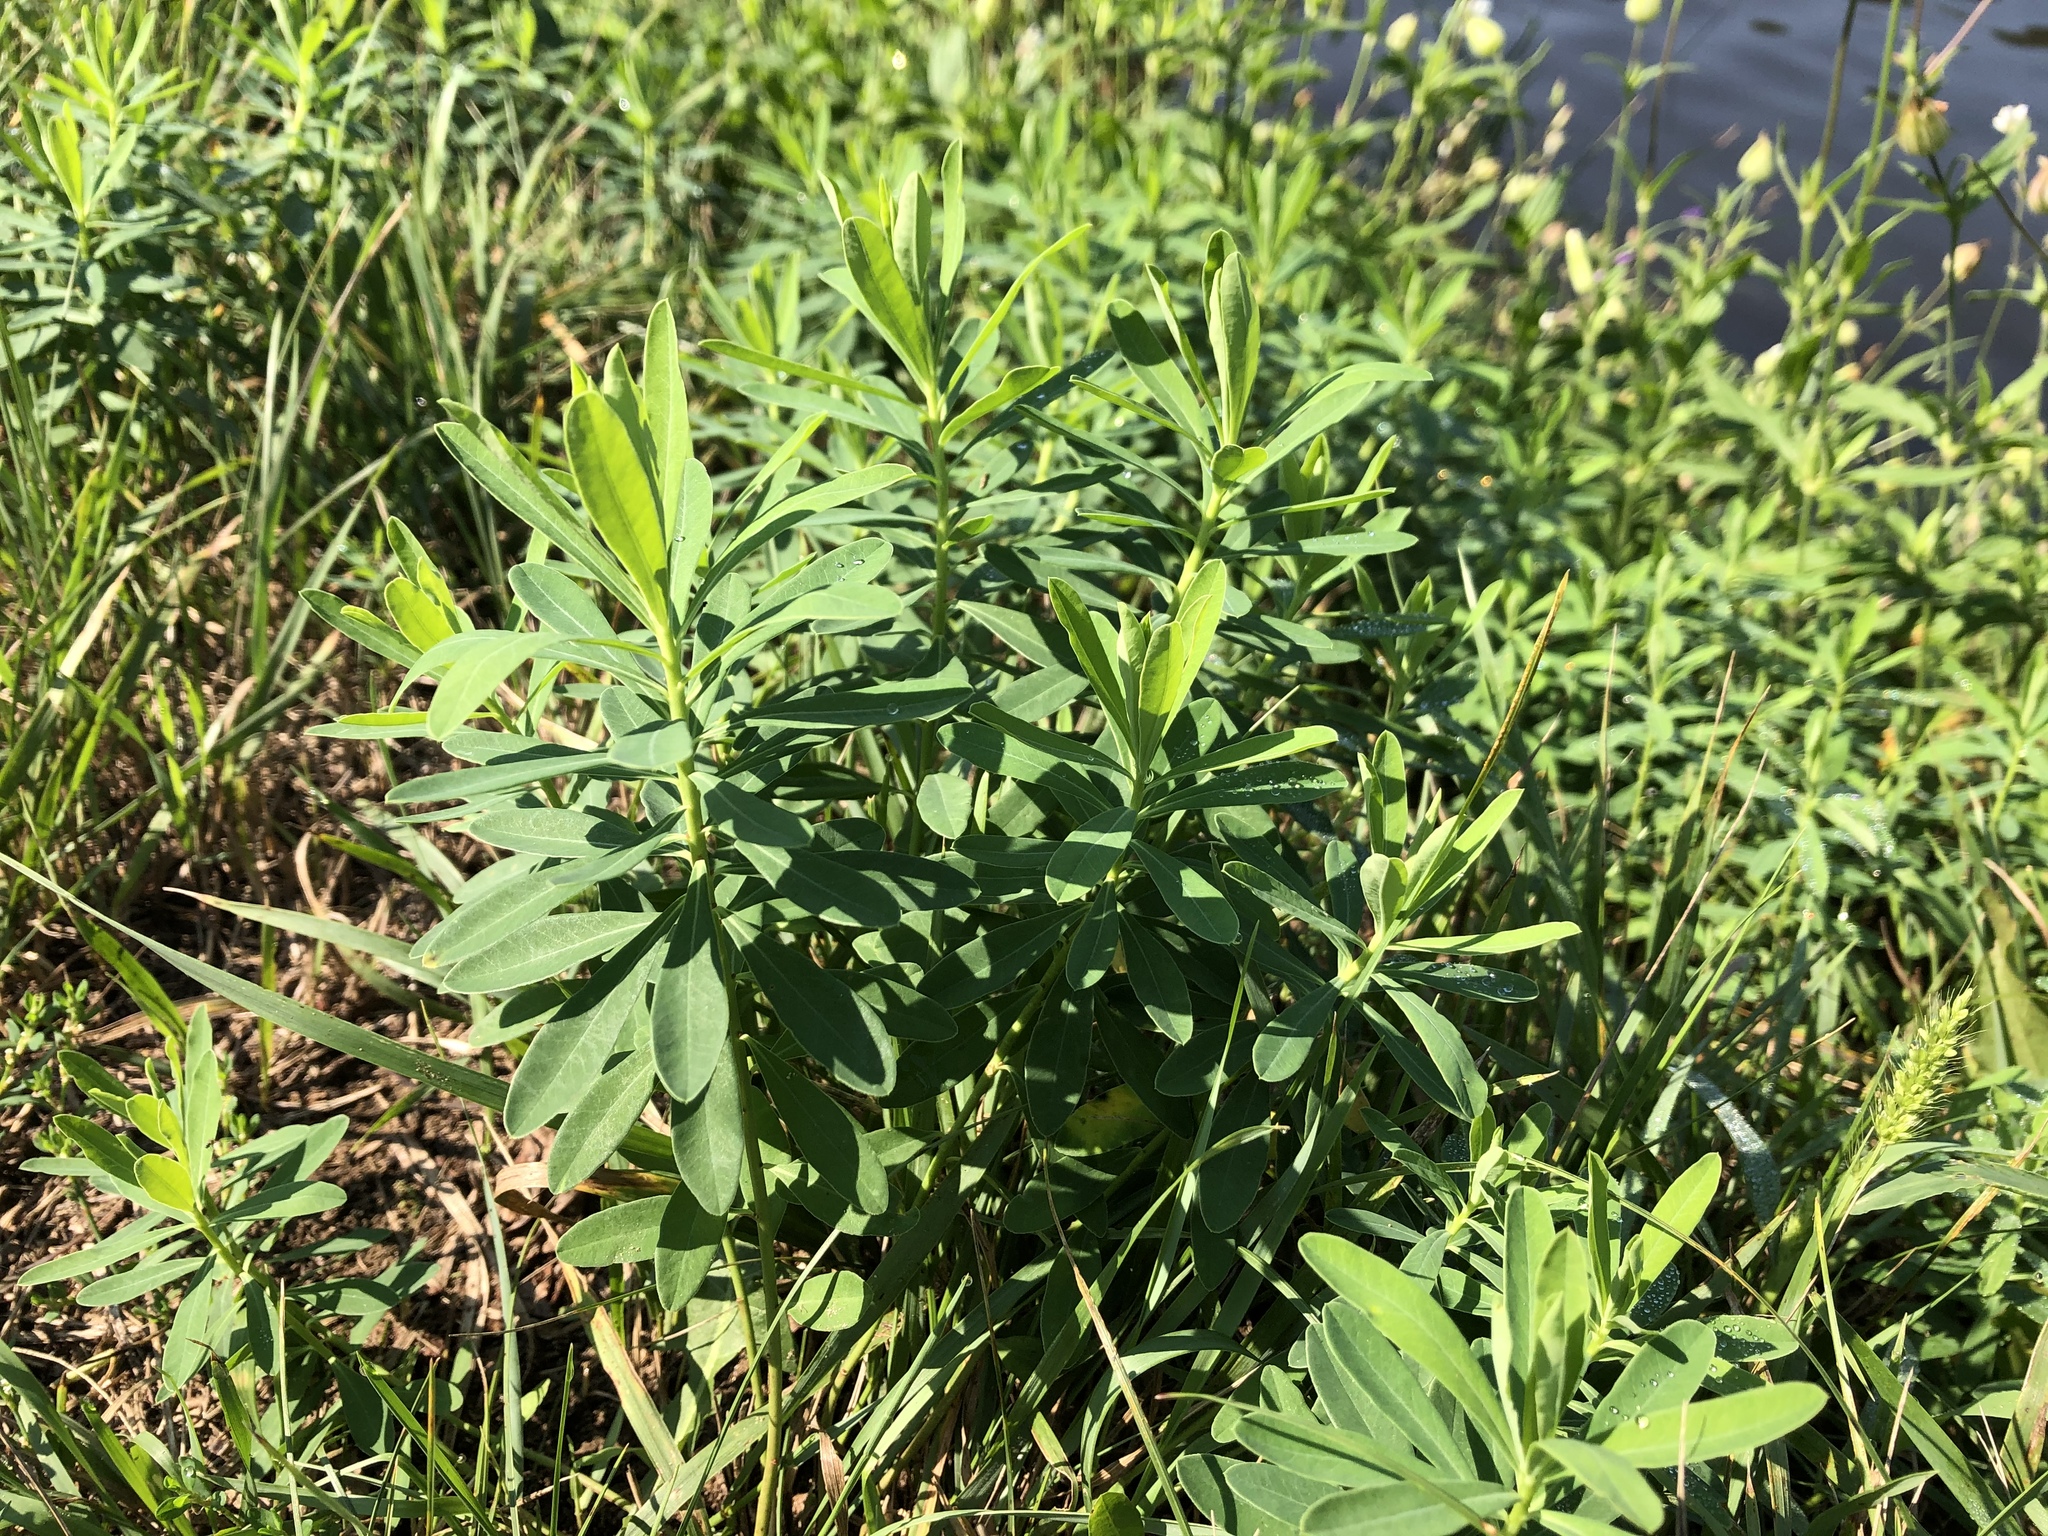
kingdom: Plantae
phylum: Tracheophyta
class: Magnoliopsida
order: Malpighiales
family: Euphorbiaceae
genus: Euphorbia
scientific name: Euphorbia esula
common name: Leafy spurge
